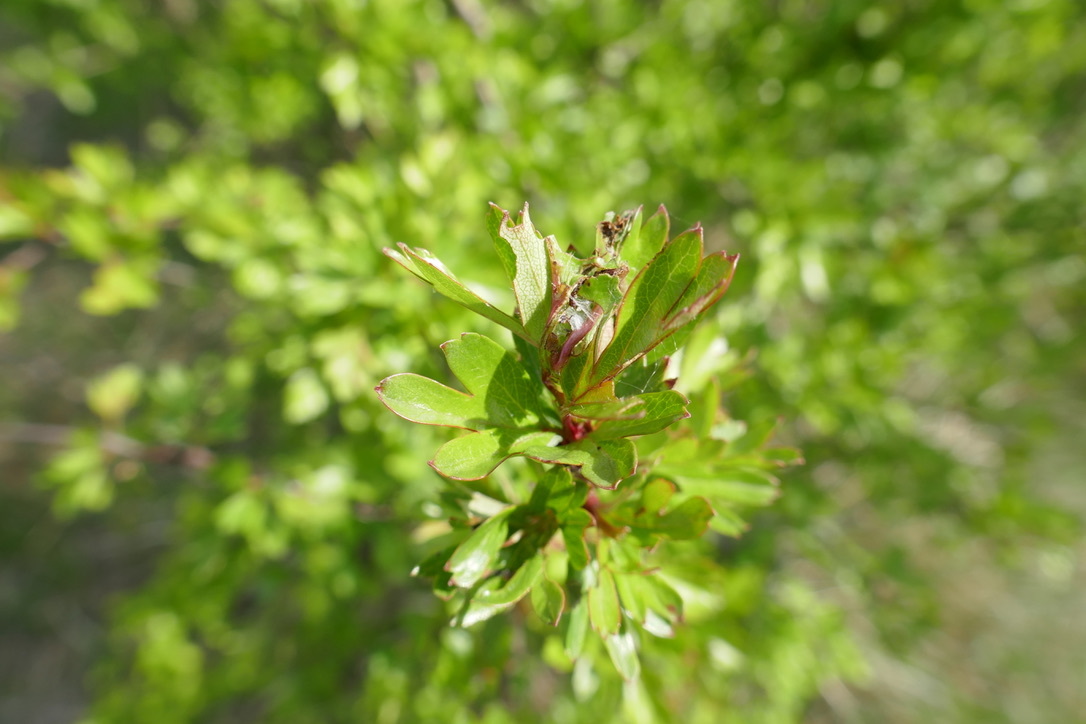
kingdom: Plantae
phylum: Tracheophyta
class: Magnoliopsida
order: Rosales
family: Rosaceae
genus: Crataegus
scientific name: Crataegus monogyna
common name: Hawthorn
